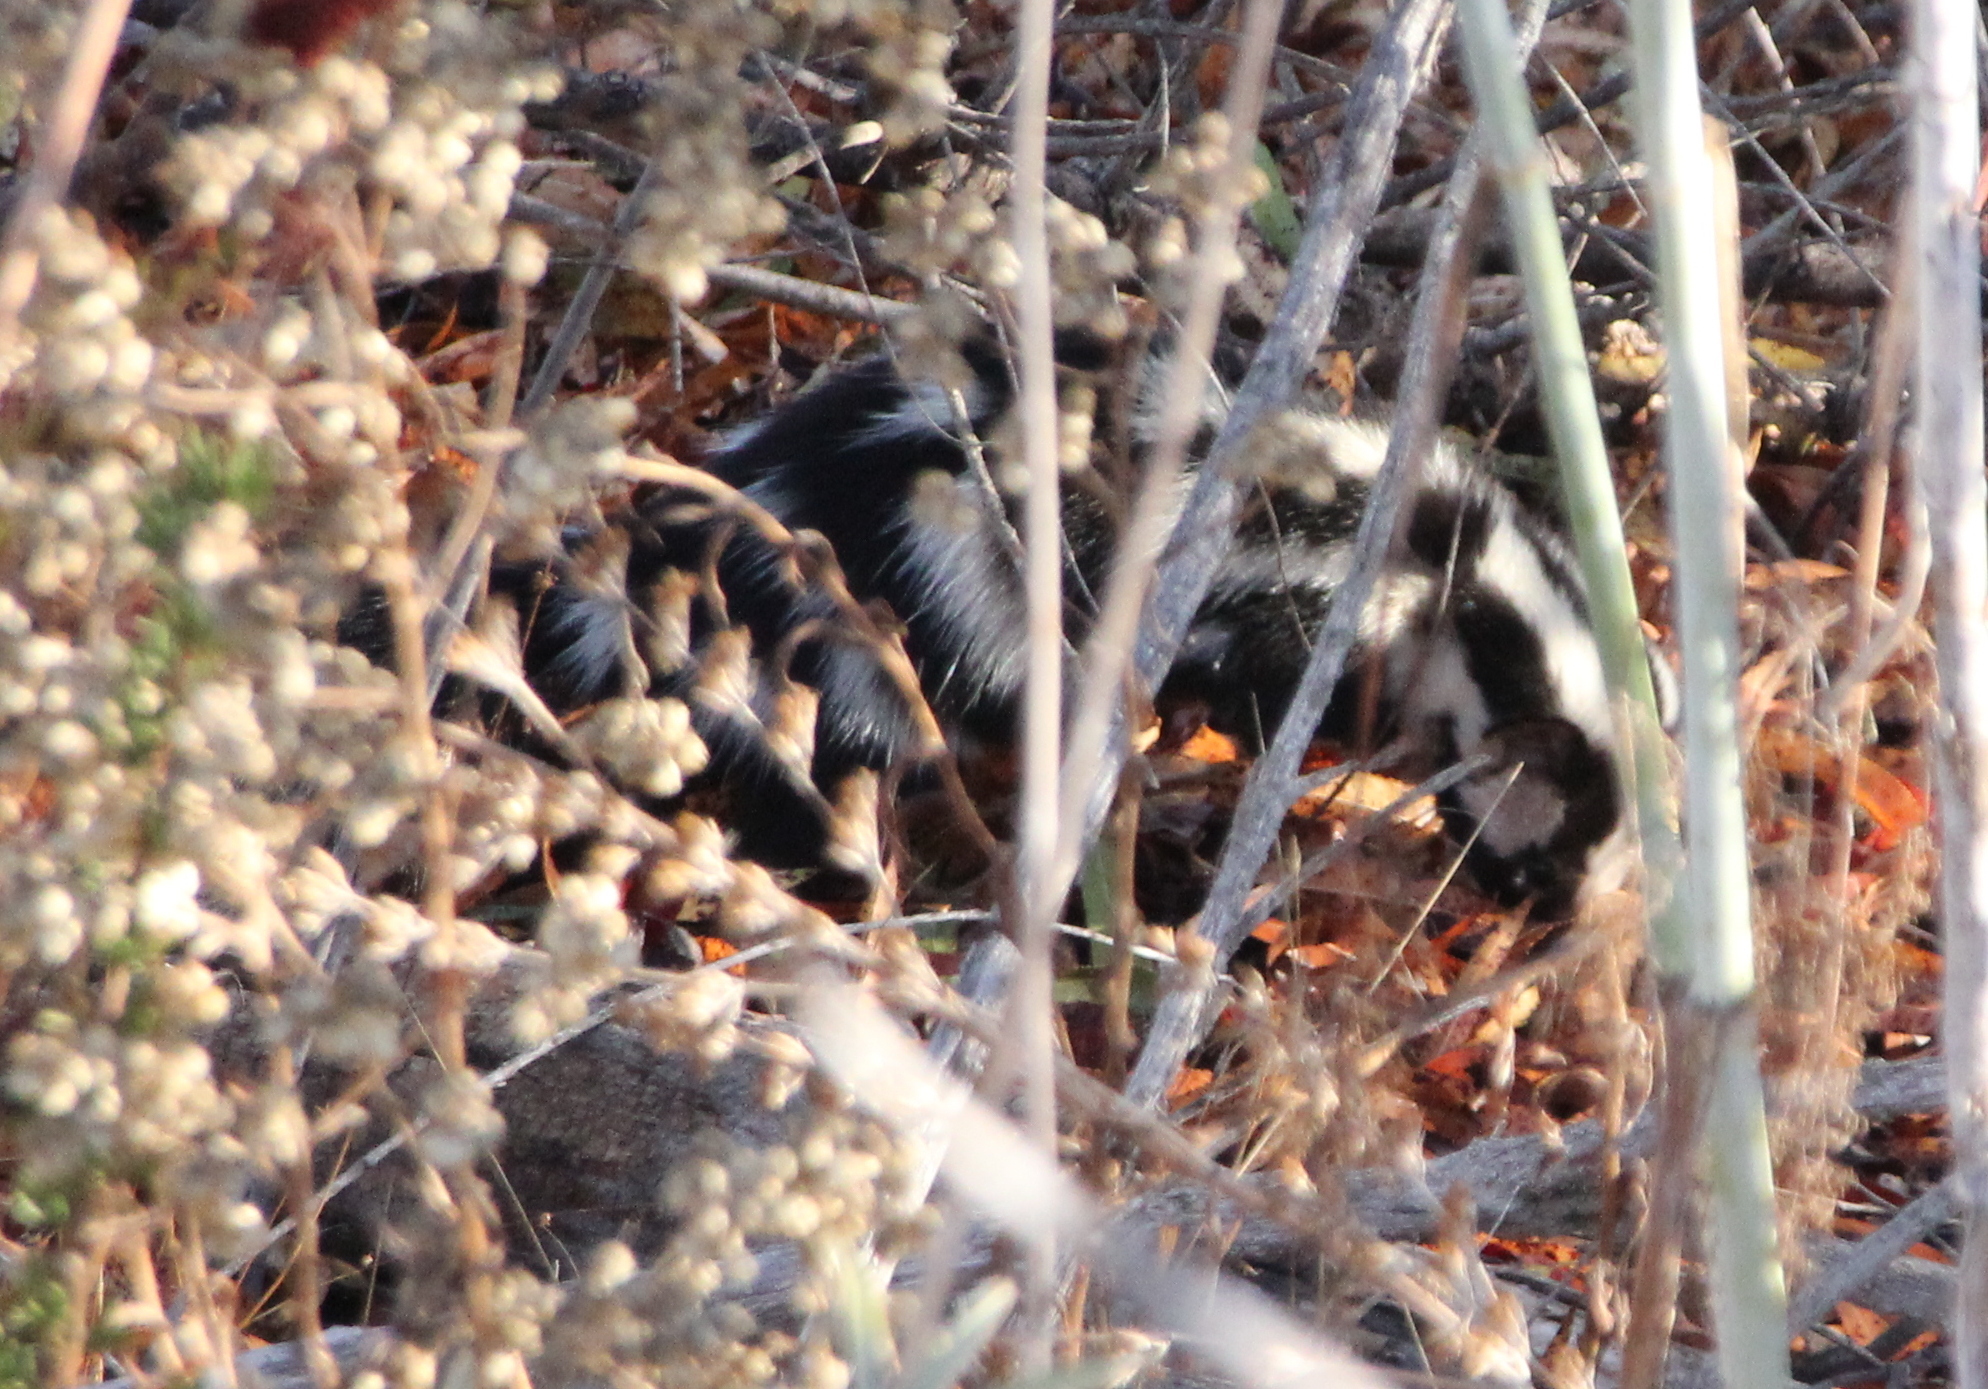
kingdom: Animalia
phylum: Chordata
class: Mammalia
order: Carnivora
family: Mephitidae
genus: Spilogale
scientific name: Spilogale gracilis
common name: Western spotted skunk
